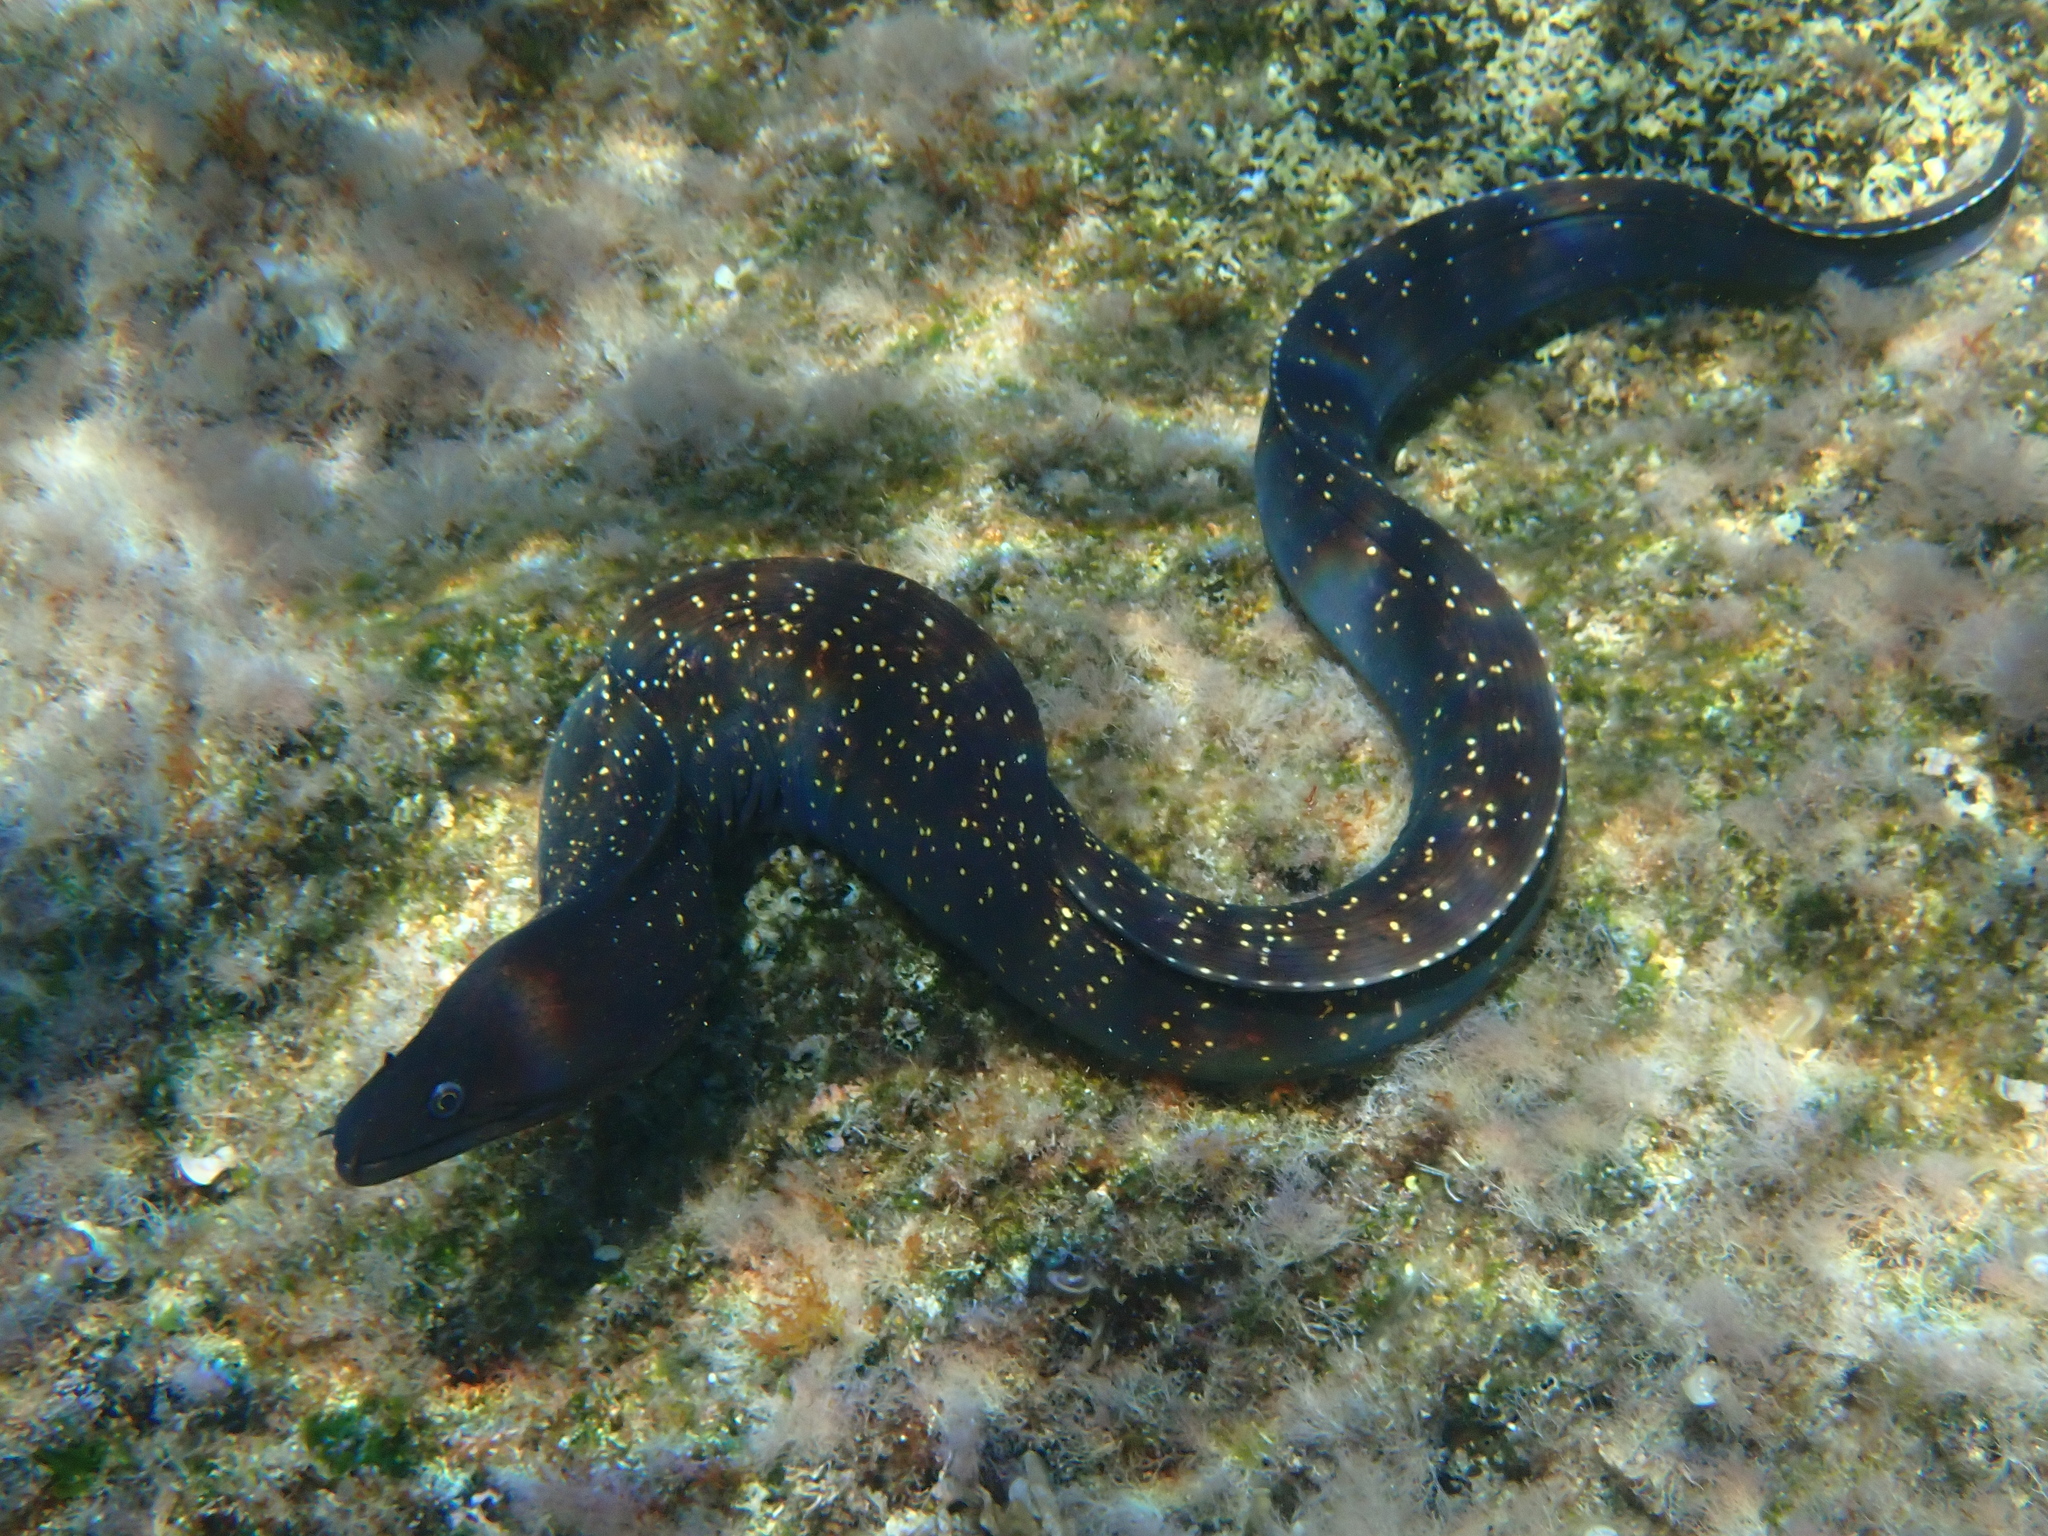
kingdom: Animalia
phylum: Chordata
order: Anguilliformes
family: Muraenidae
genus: Muraena
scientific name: Muraena helena
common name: Mediterranean moray
